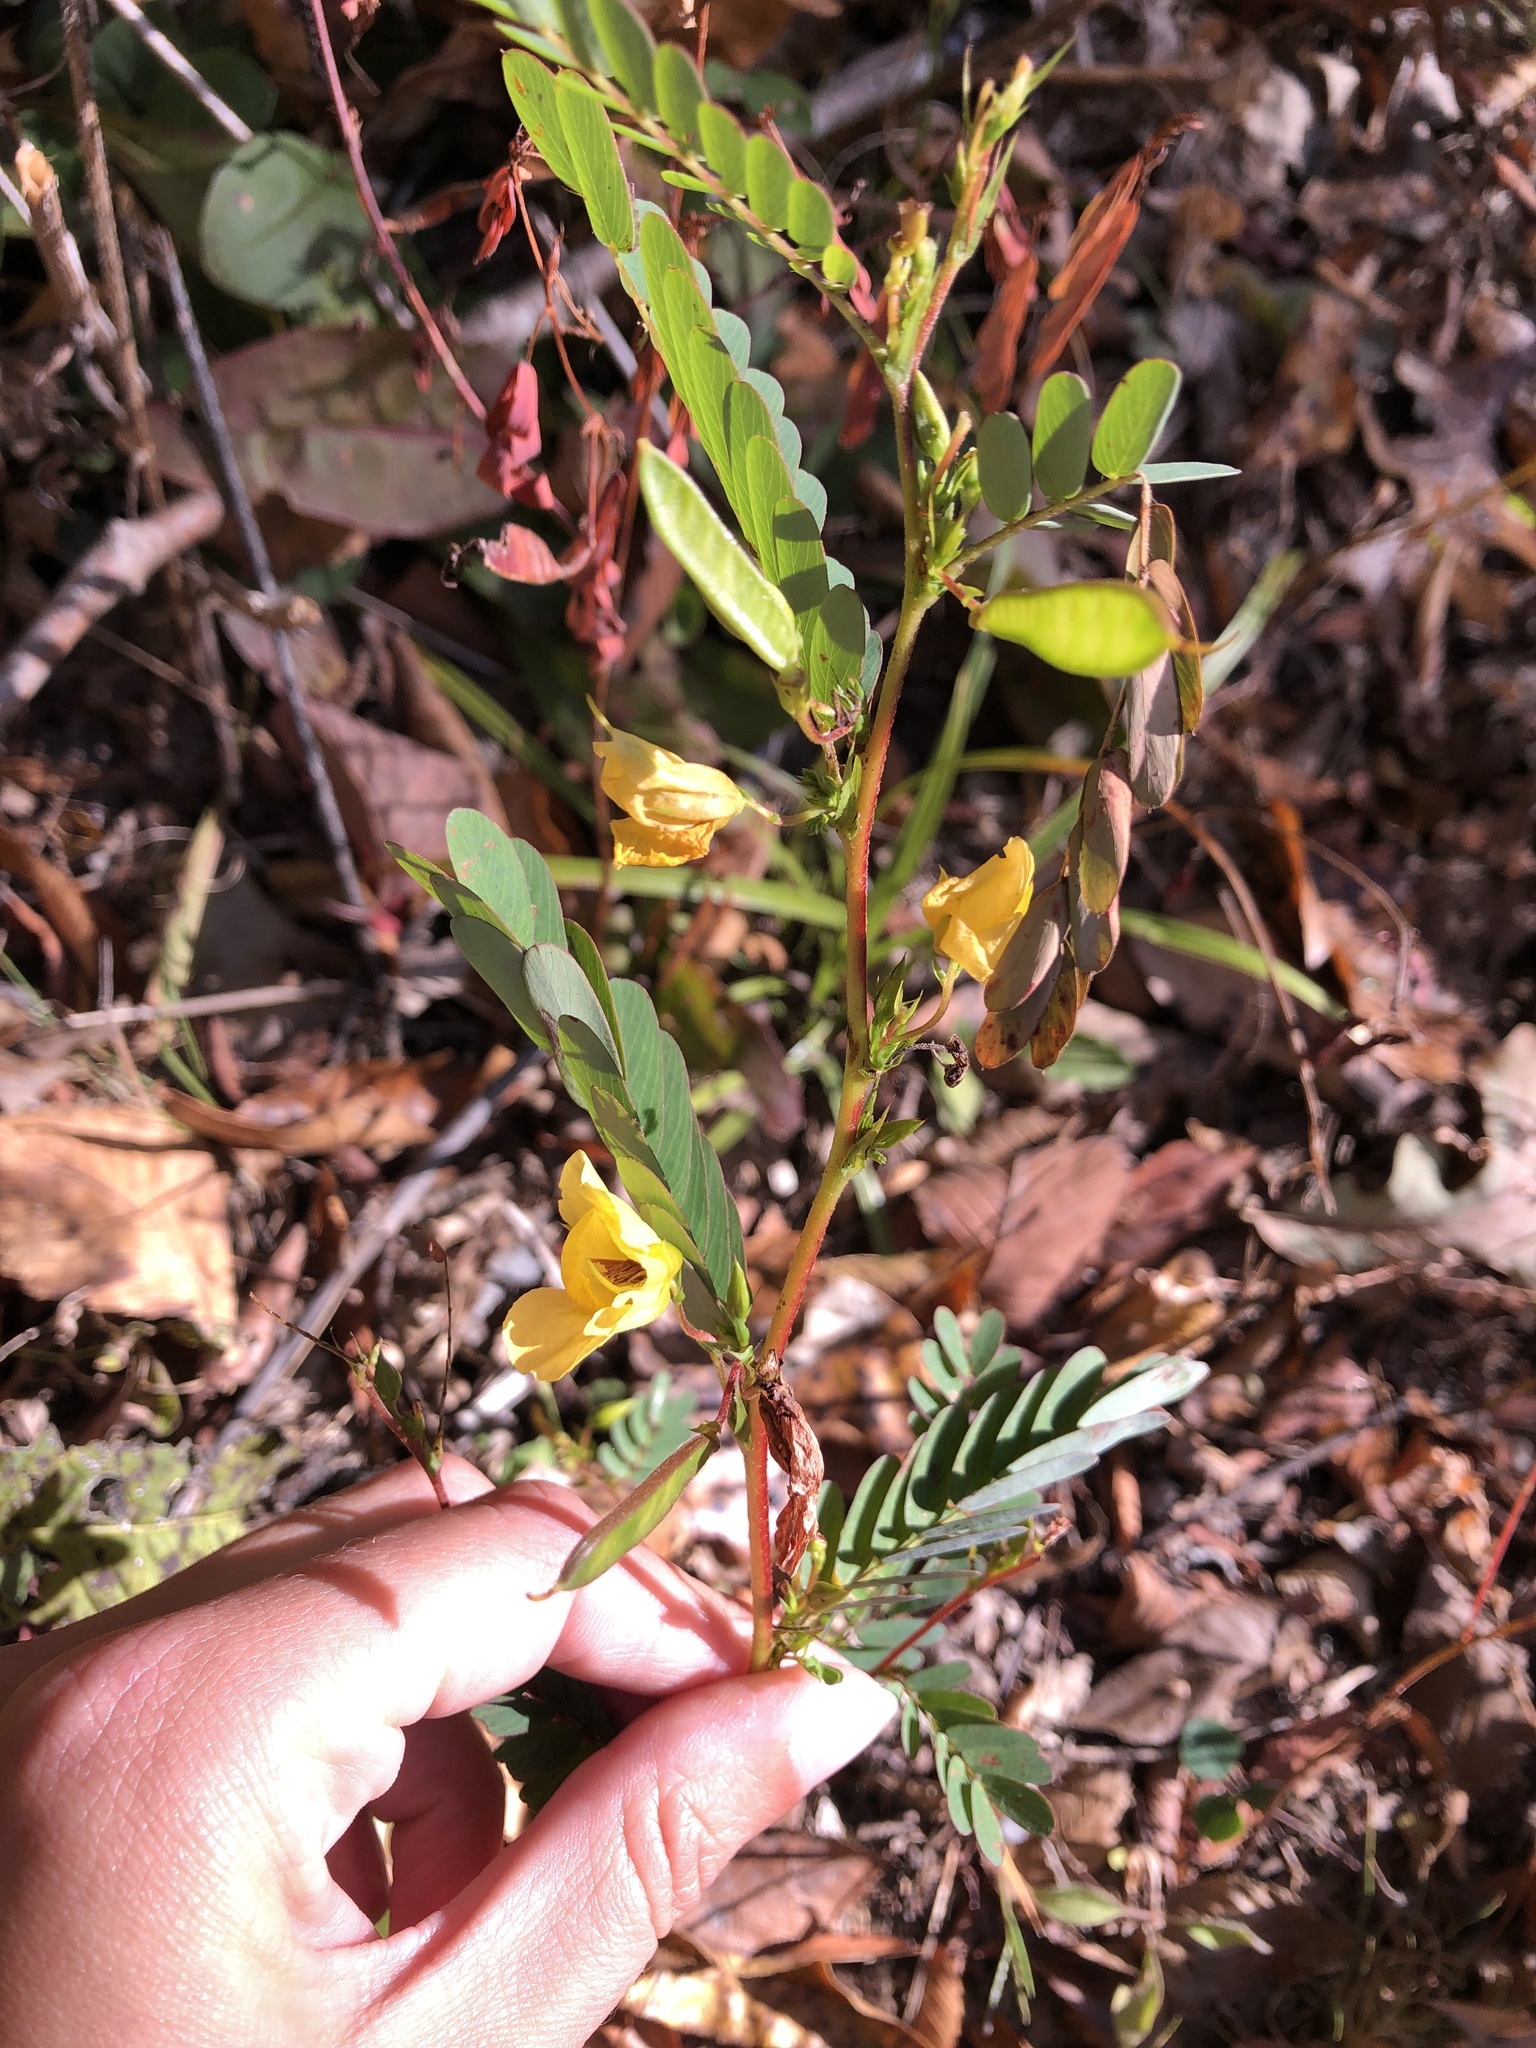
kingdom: Plantae
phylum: Tracheophyta
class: Magnoliopsida
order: Fabales
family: Fabaceae
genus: Chamaecrista
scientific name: Chamaecrista fasciculata
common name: Golden cassia
